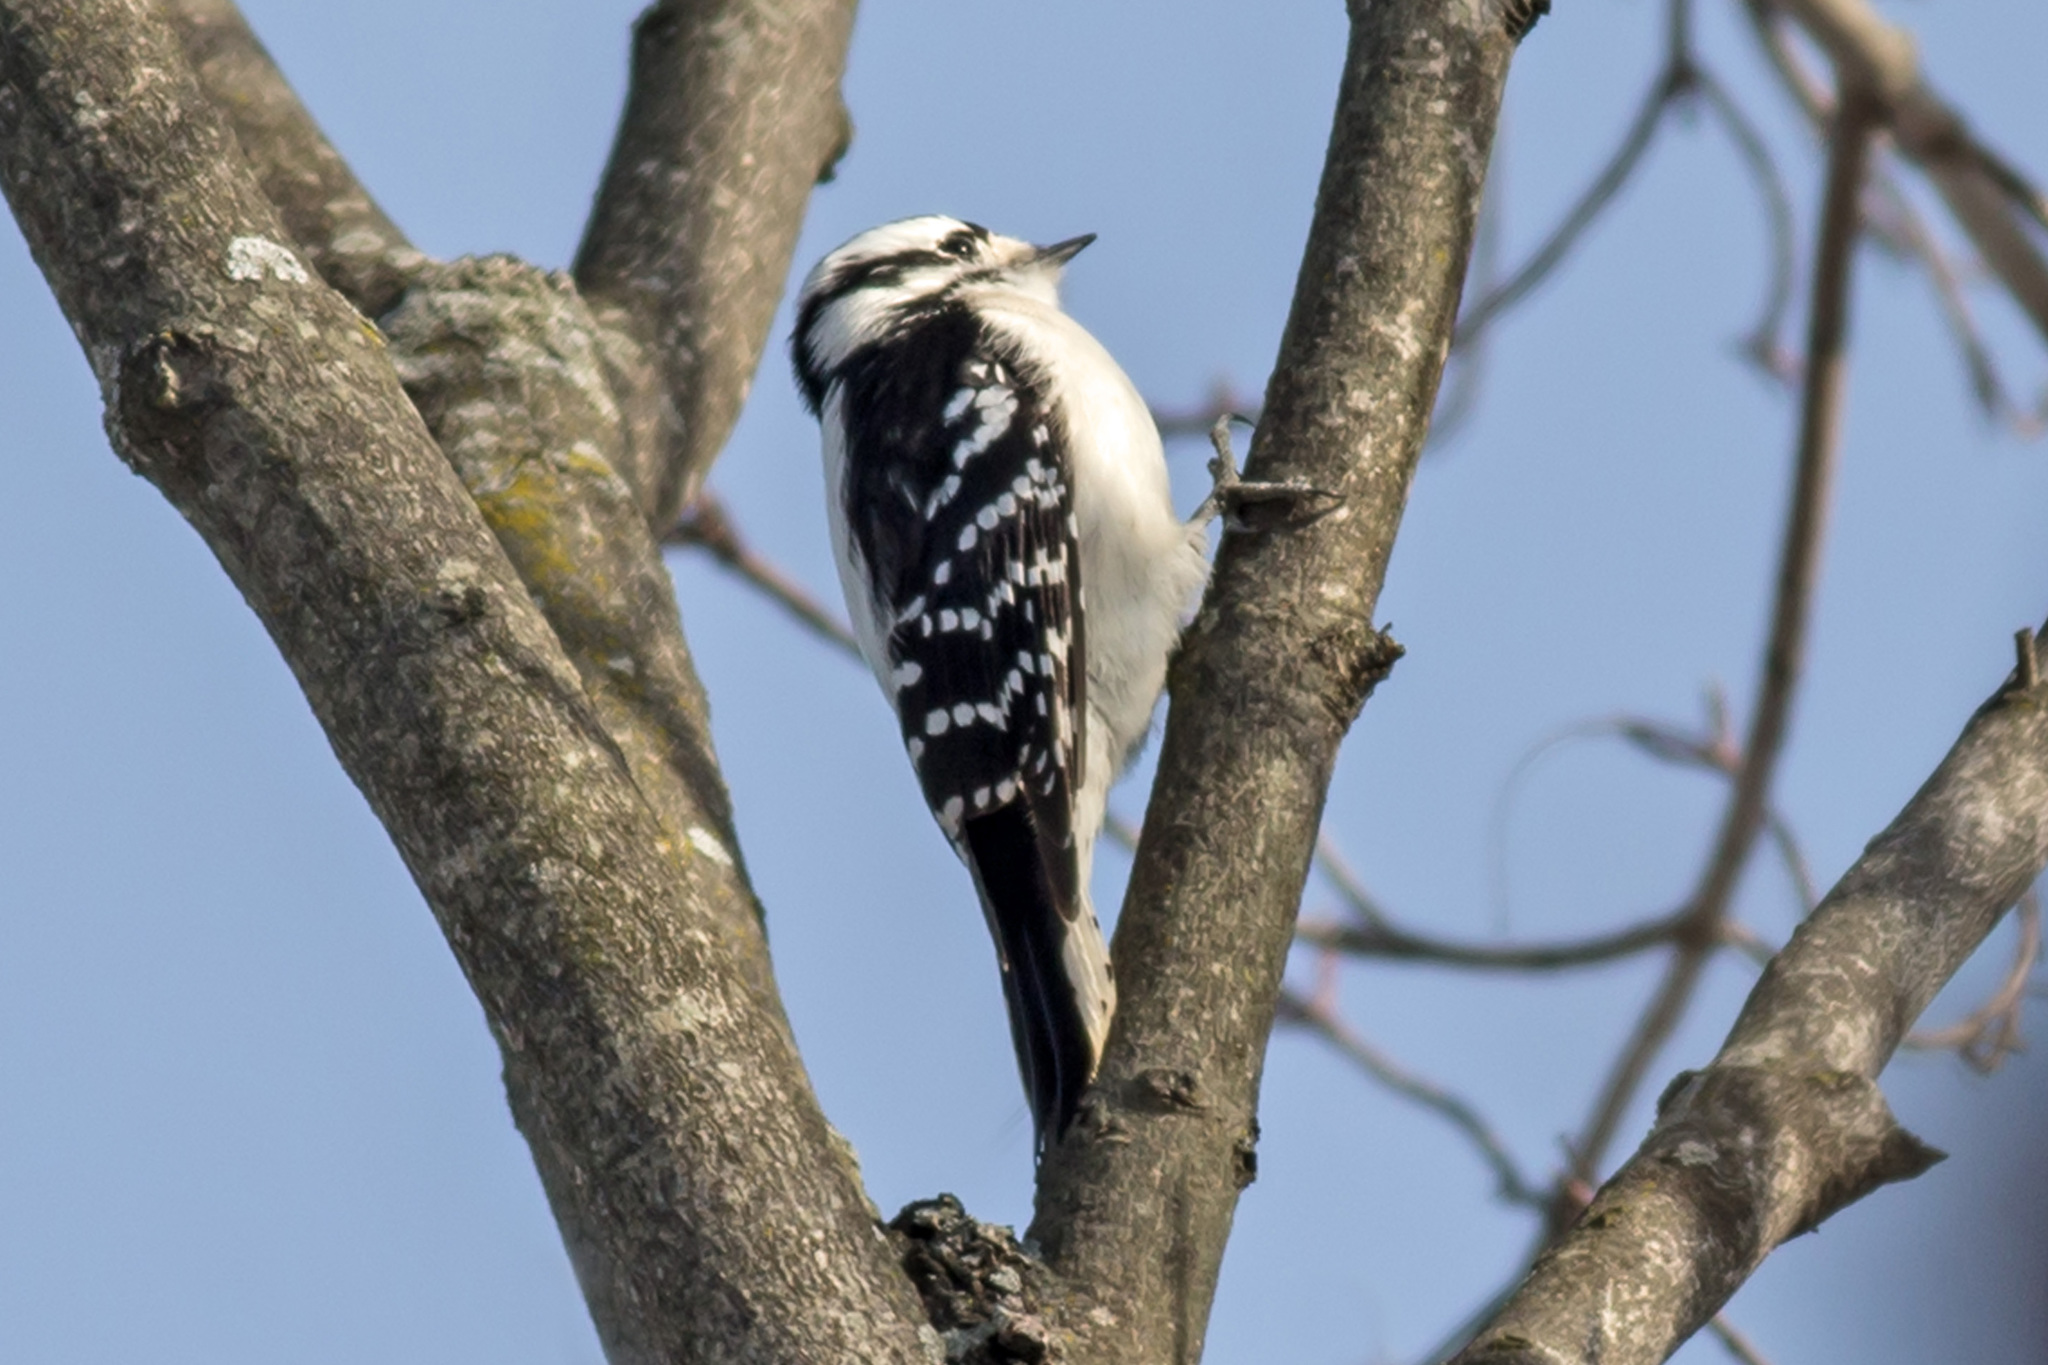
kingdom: Animalia
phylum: Chordata
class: Aves
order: Piciformes
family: Picidae
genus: Dryobates
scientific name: Dryobates pubescens
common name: Downy woodpecker
